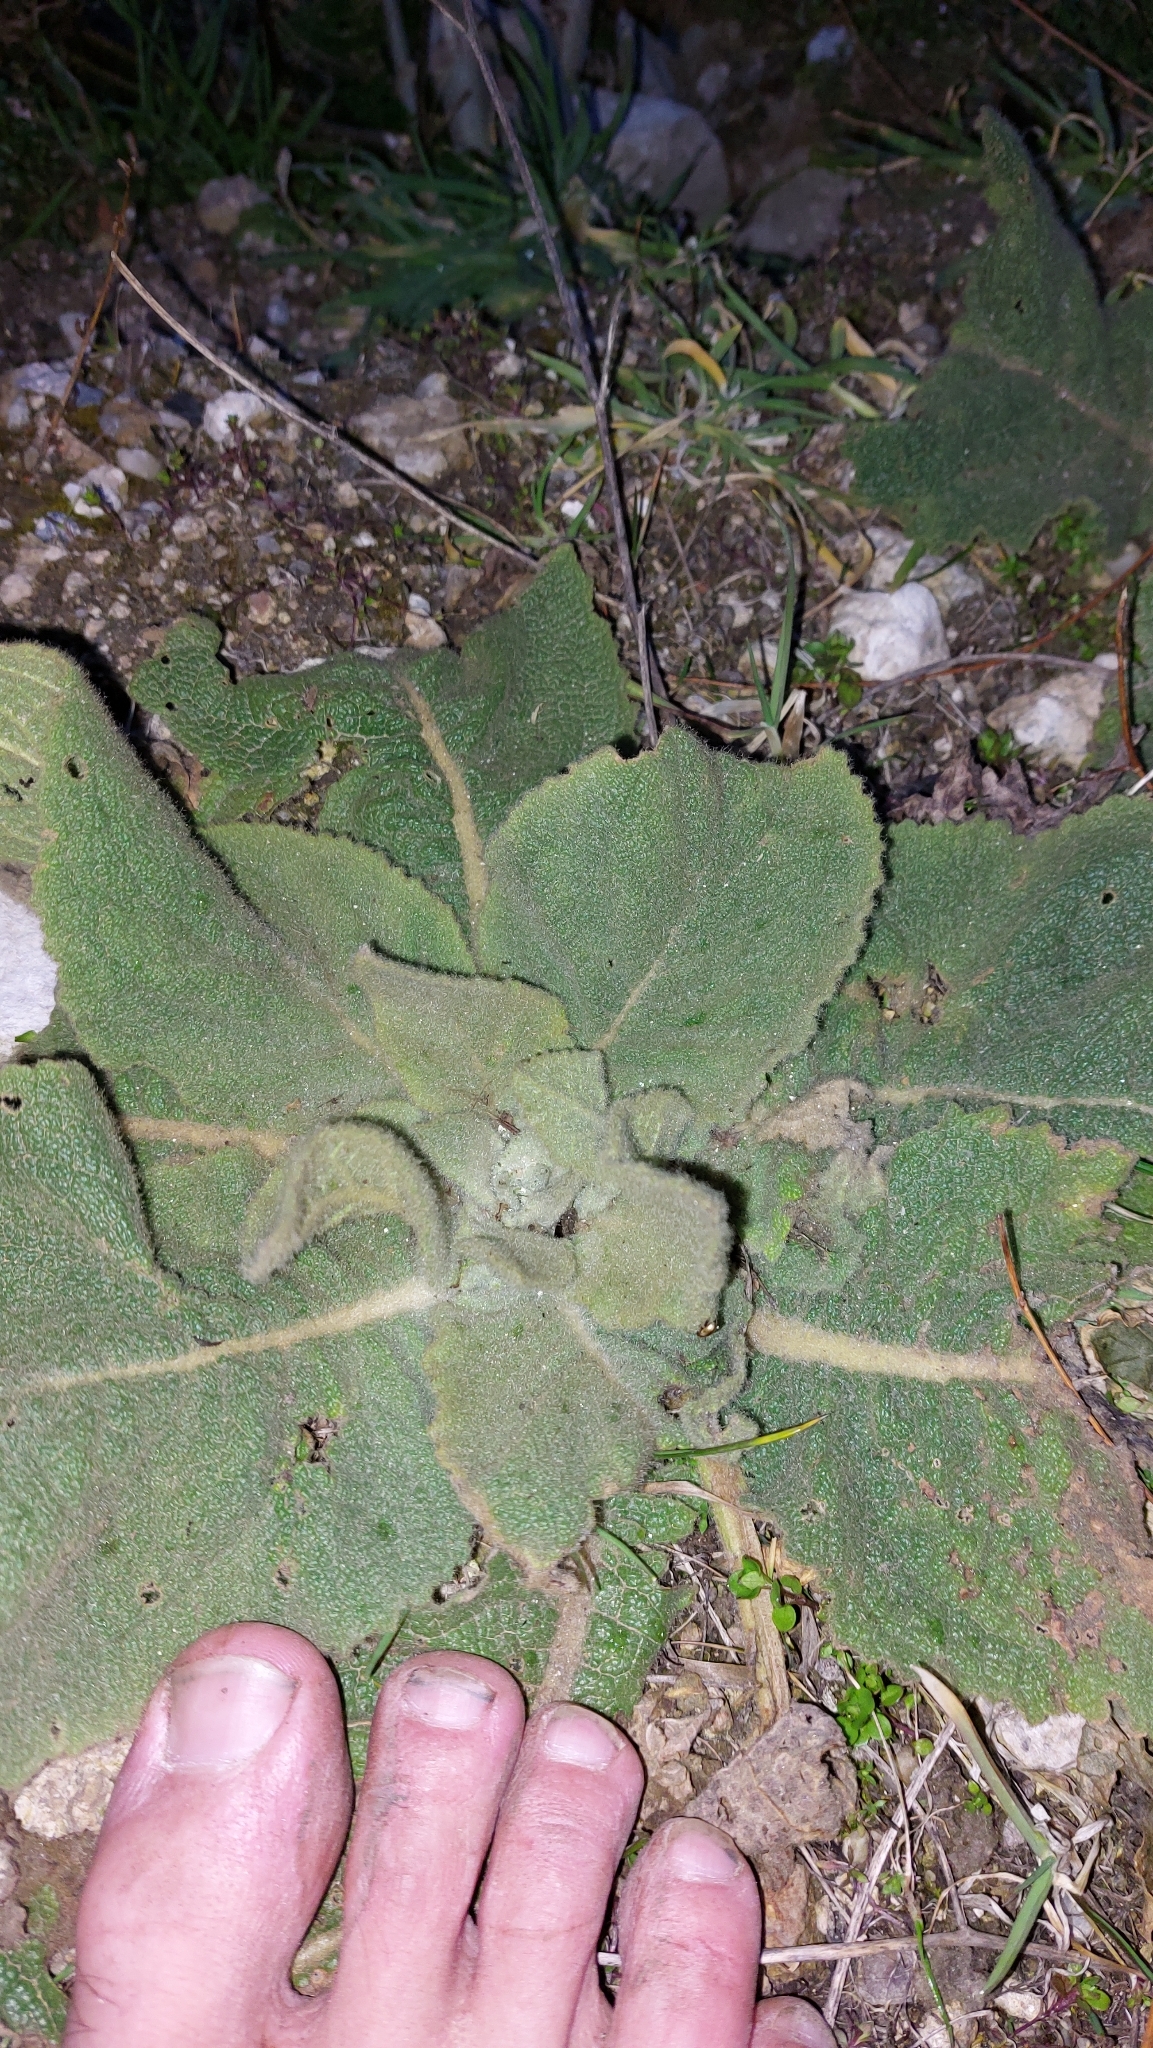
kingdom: Plantae
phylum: Tracheophyta
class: Magnoliopsida
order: Lamiales
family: Scrophulariaceae
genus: Verbascum
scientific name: Verbascum
